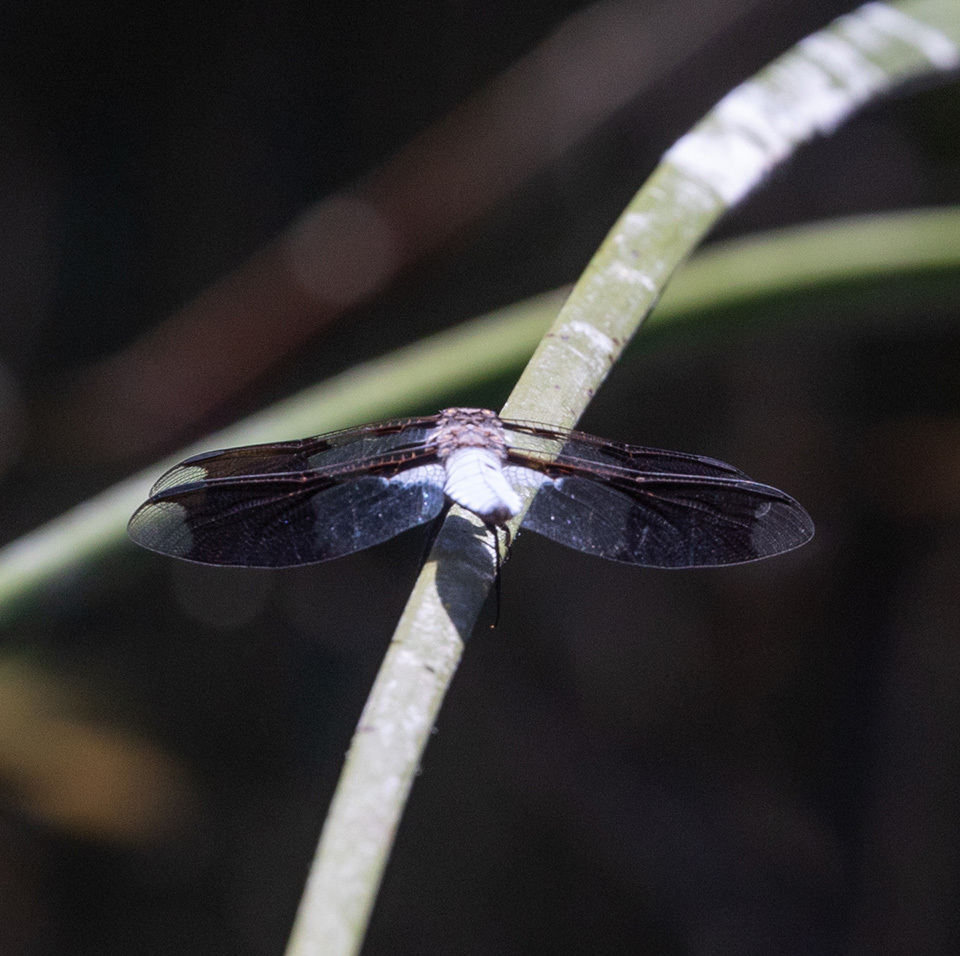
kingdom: Animalia
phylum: Arthropoda
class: Insecta
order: Odonata
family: Libellulidae
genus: Plathemis
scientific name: Plathemis lydia
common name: Common whitetail
